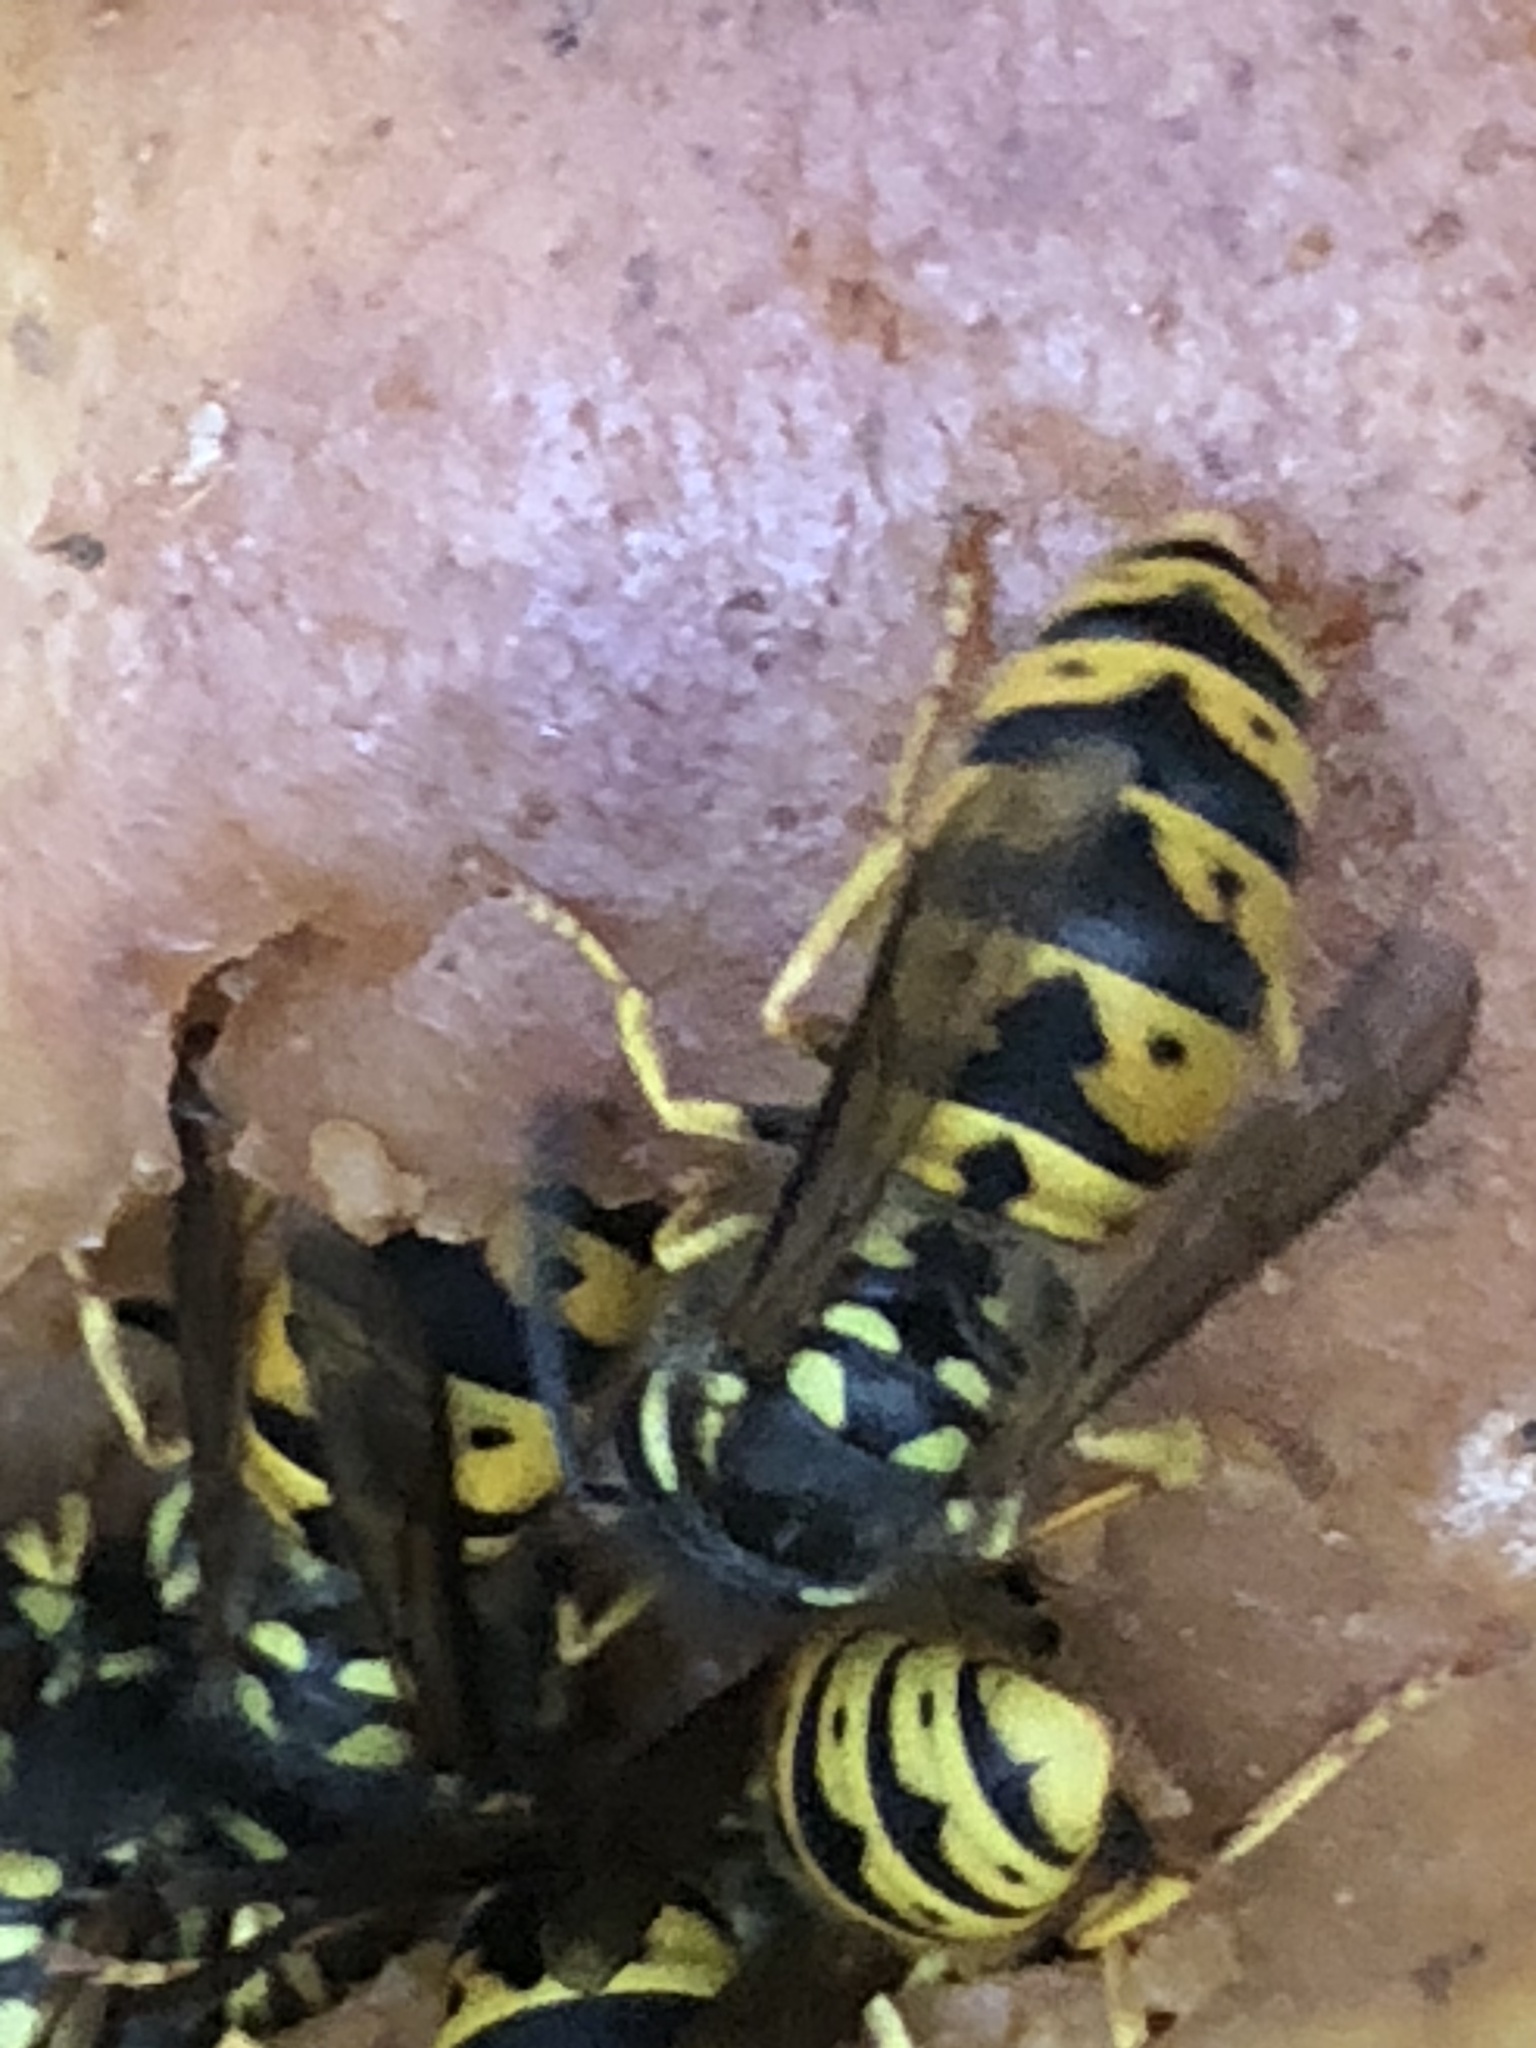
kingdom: Animalia
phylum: Arthropoda
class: Insecta
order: Hymenoptera
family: Vespidae
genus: Vespula
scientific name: Vespula germanica
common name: German wasp
